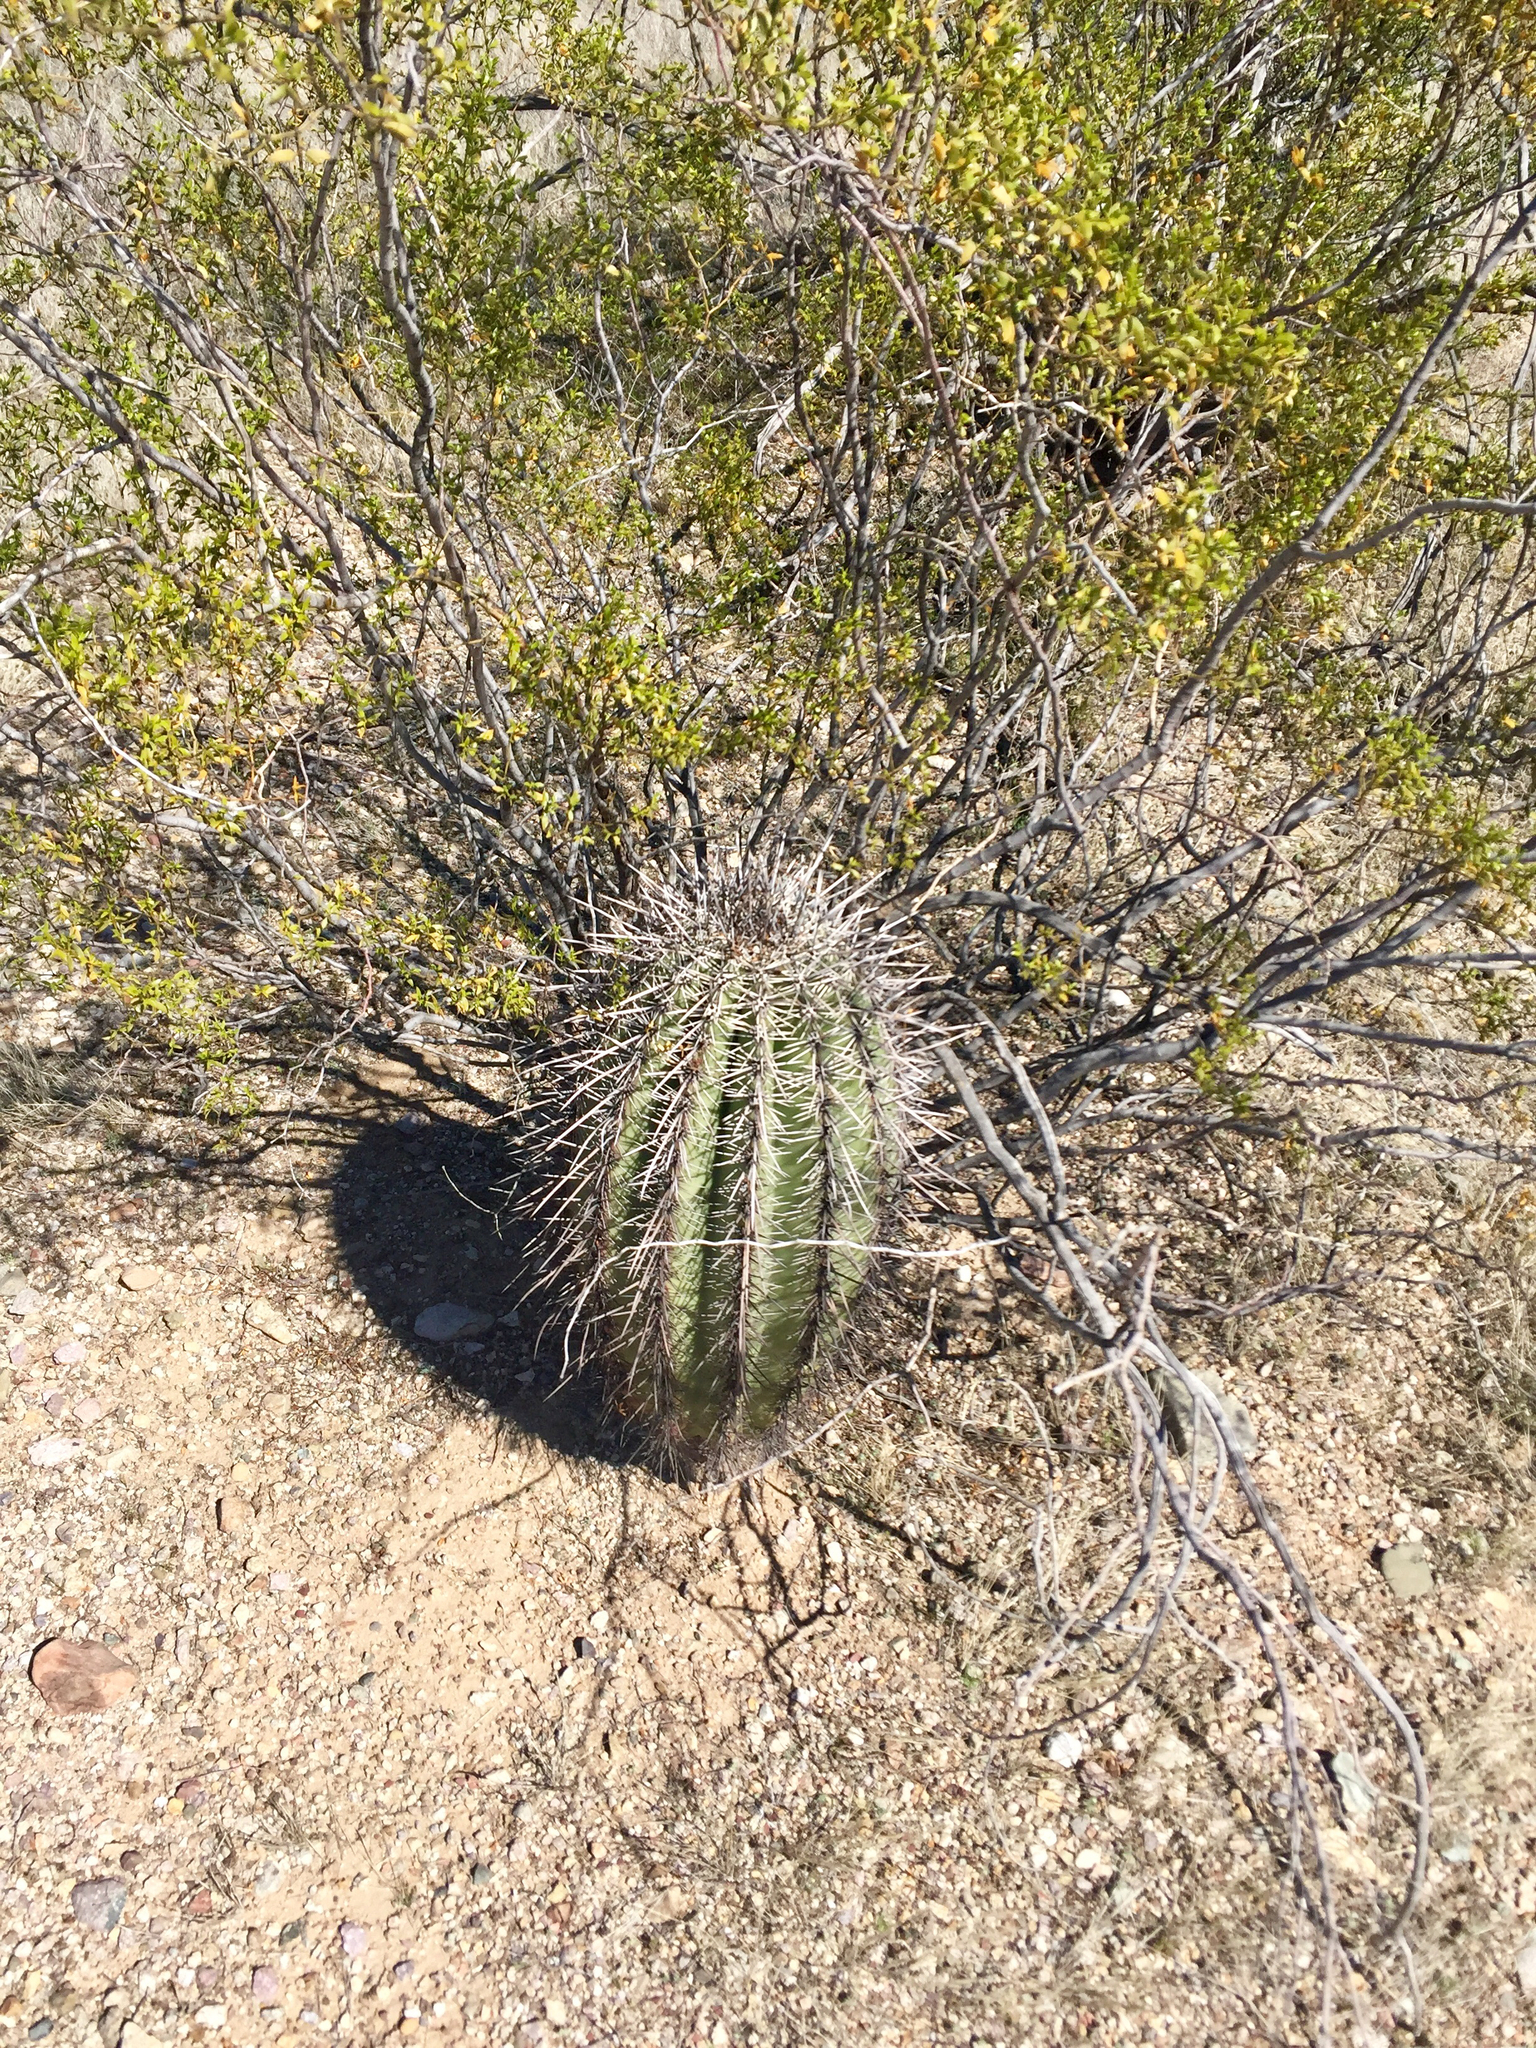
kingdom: Plantae
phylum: Tracheophyta
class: Magnoliopsida
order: Caryophyllales
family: Cactaceae
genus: Carnegiea
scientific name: Carnegiea gigantea
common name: Saguaro
